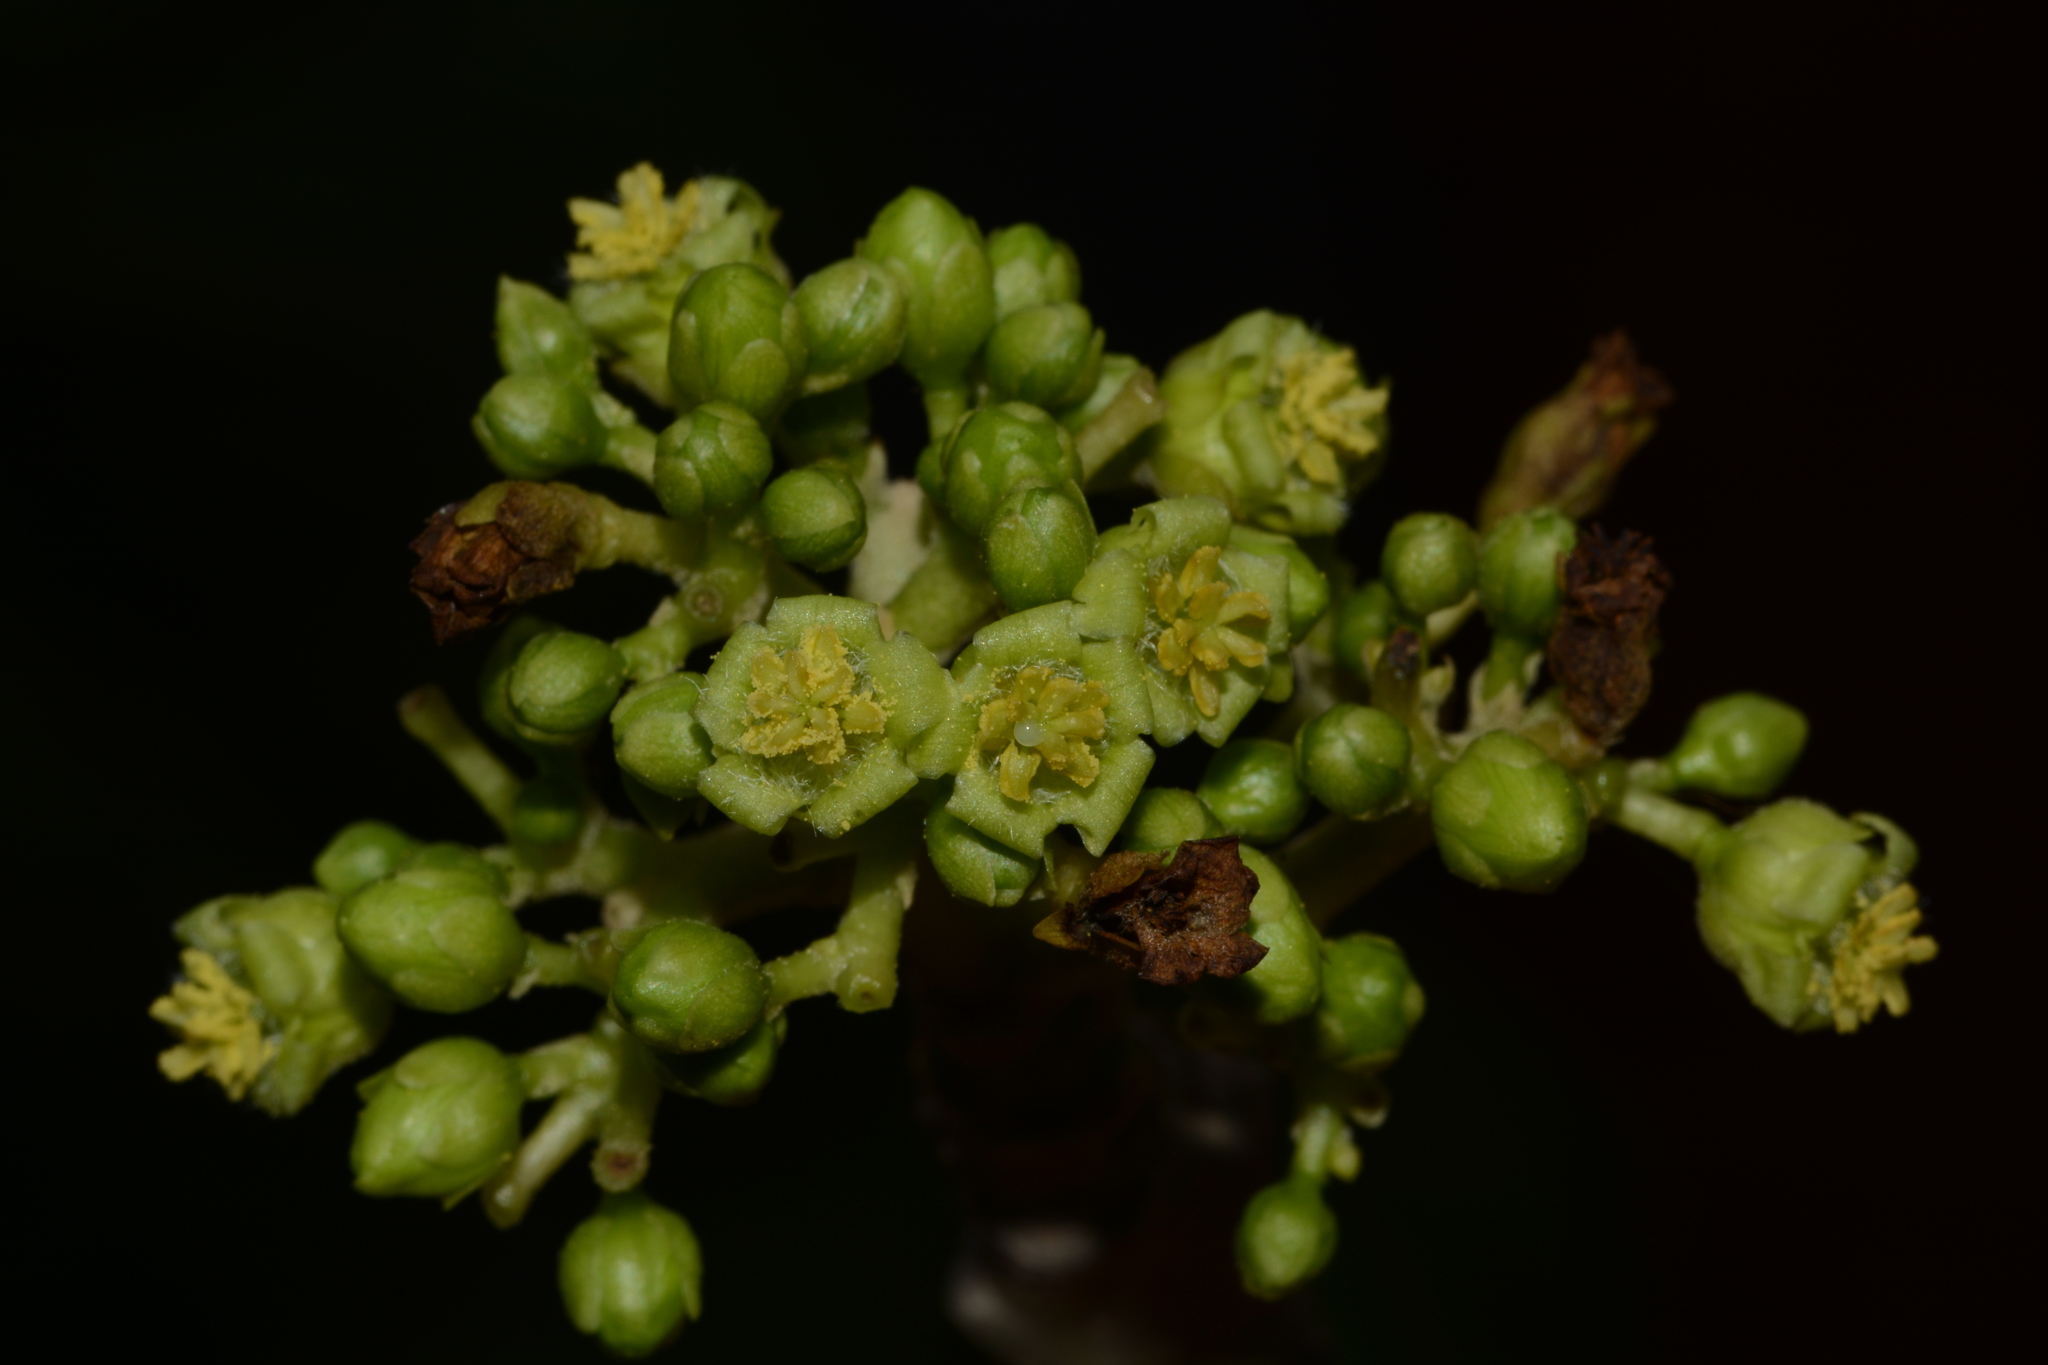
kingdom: Plantae
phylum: Tracheophyta
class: Magnoliopsida
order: Malpighiales
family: Euphorbiaceae
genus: Jatropha
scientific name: Jatropha curcas
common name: Barbados nut
